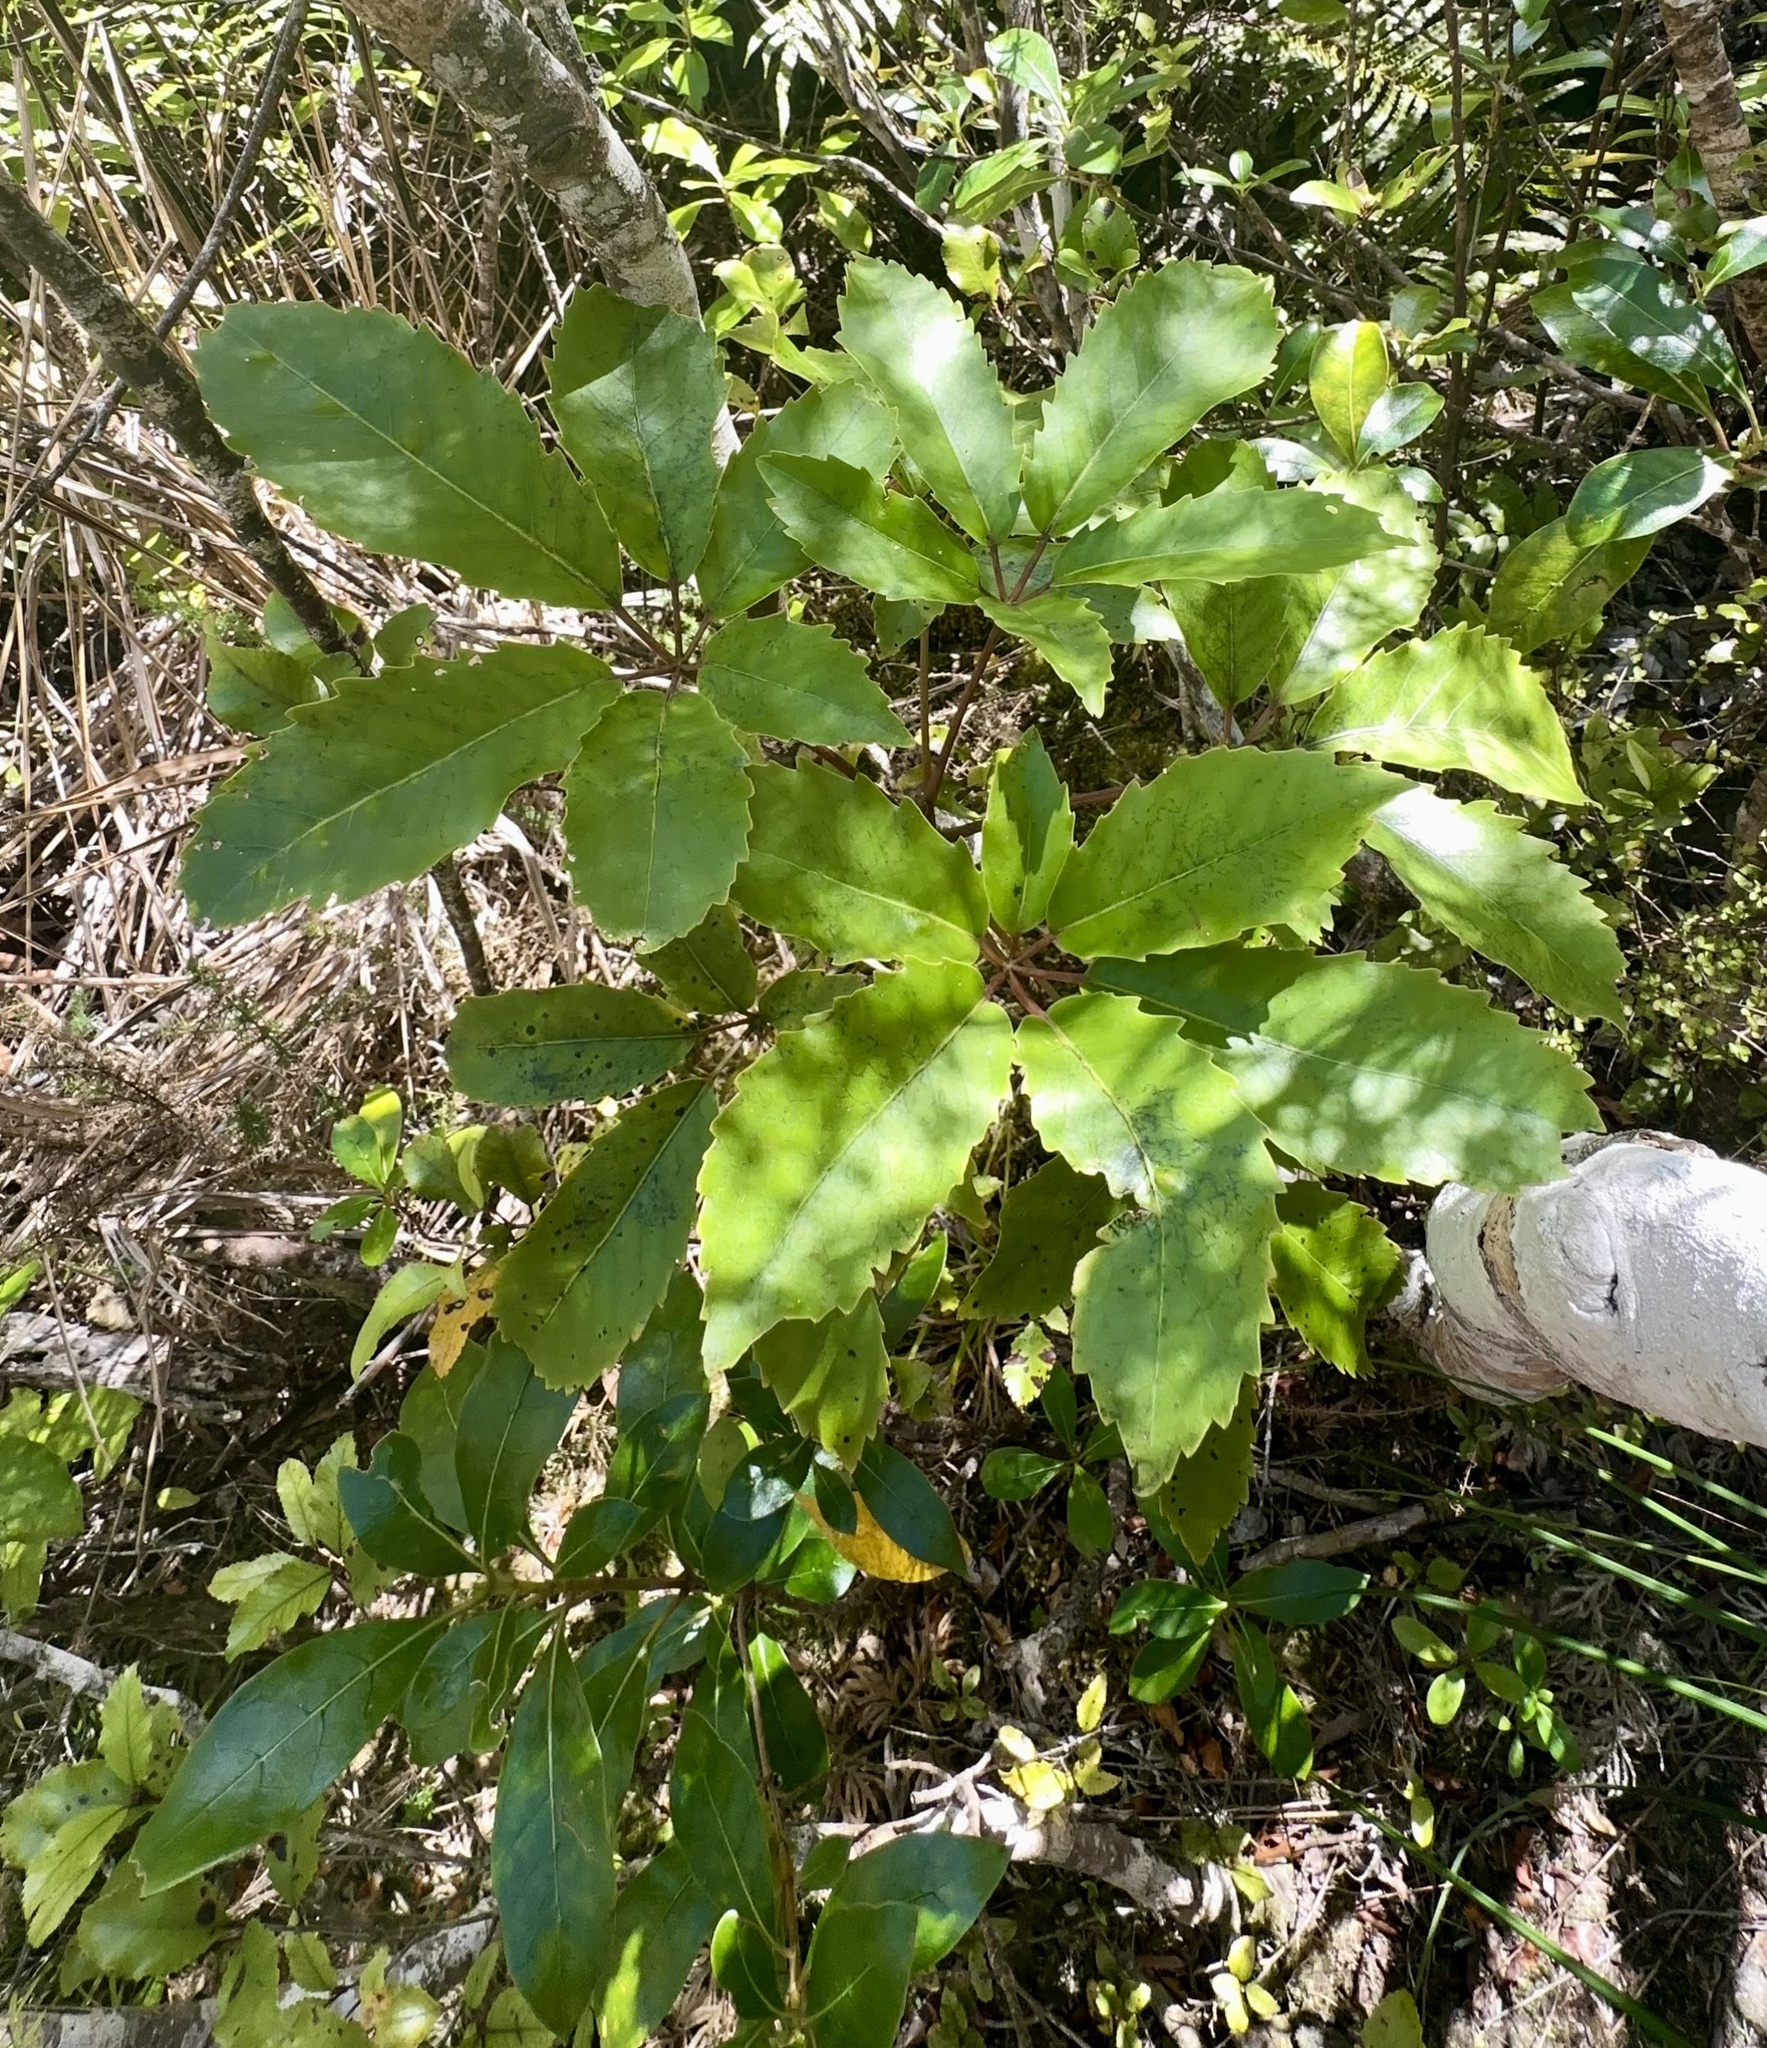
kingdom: Plantae
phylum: Tracheophyta
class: Magnoliopsida
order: Oxalidales
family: Cunoniaceae
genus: Pterophylla
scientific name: Pterophylla racemosa
